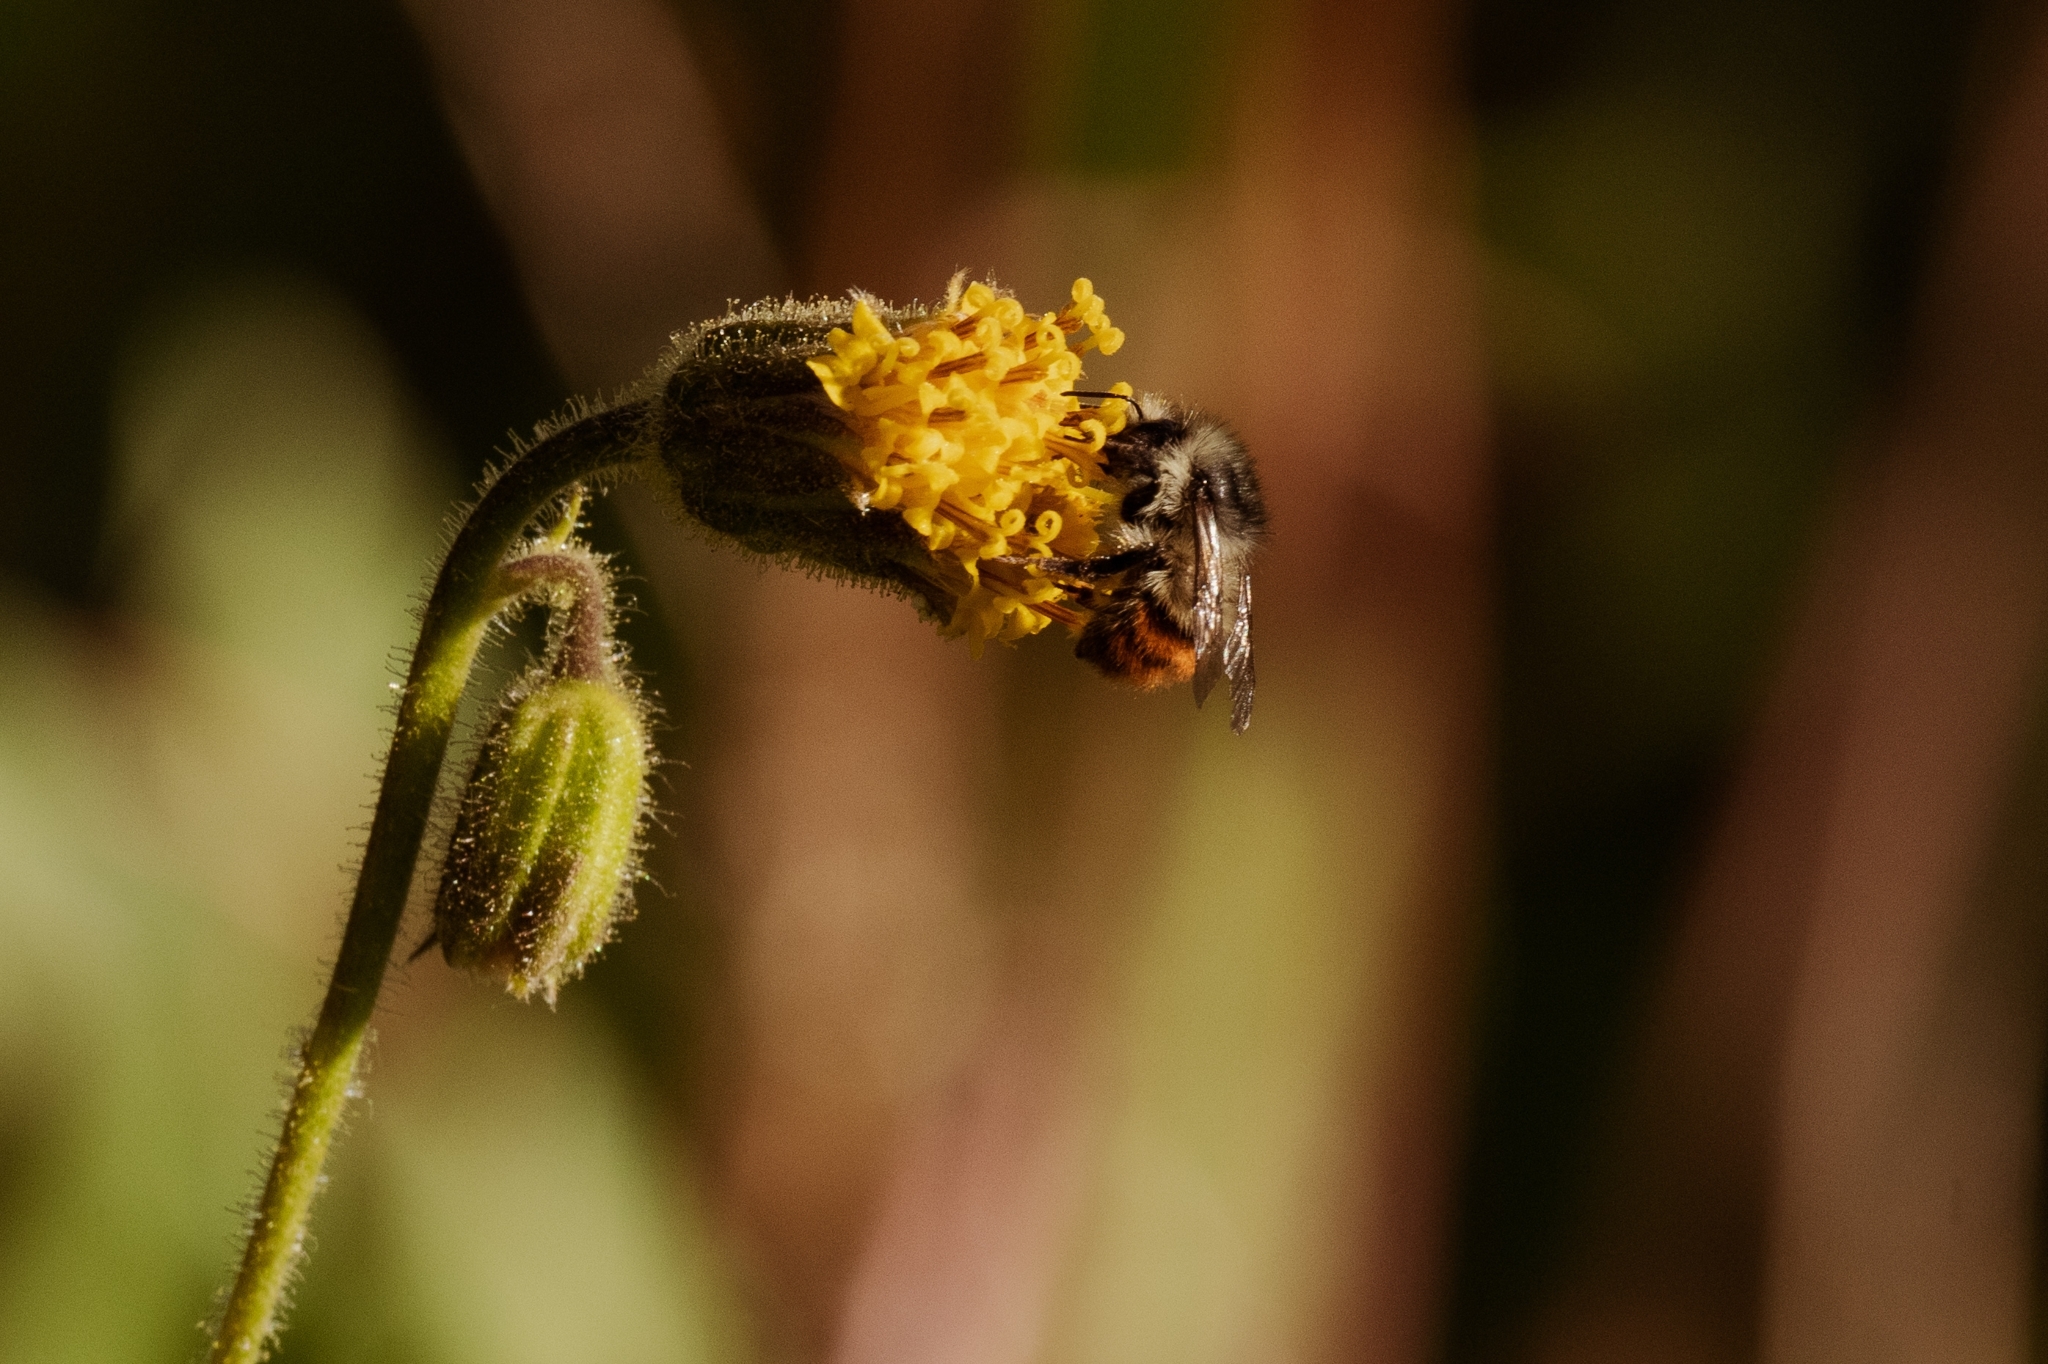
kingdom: Animalia
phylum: Arthropoda
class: Insecta
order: Hymenoptera
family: Apidae
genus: Bombus
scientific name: Bombus flavifrons
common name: Yellow head bumble bee
